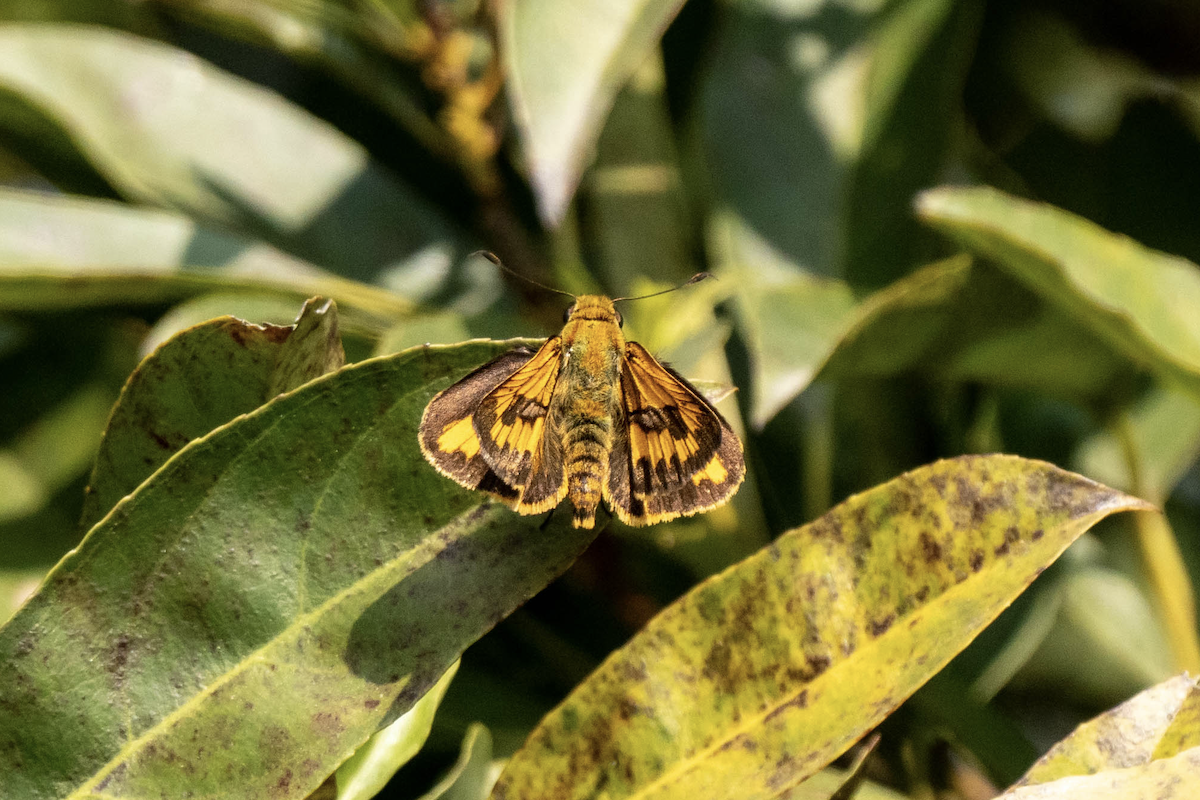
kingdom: Animalia
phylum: Arthropoda
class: Insecta
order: Lepidoptera
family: Hesperiidae
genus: Telicota
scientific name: Telicota besta
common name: Hainan palm dart
